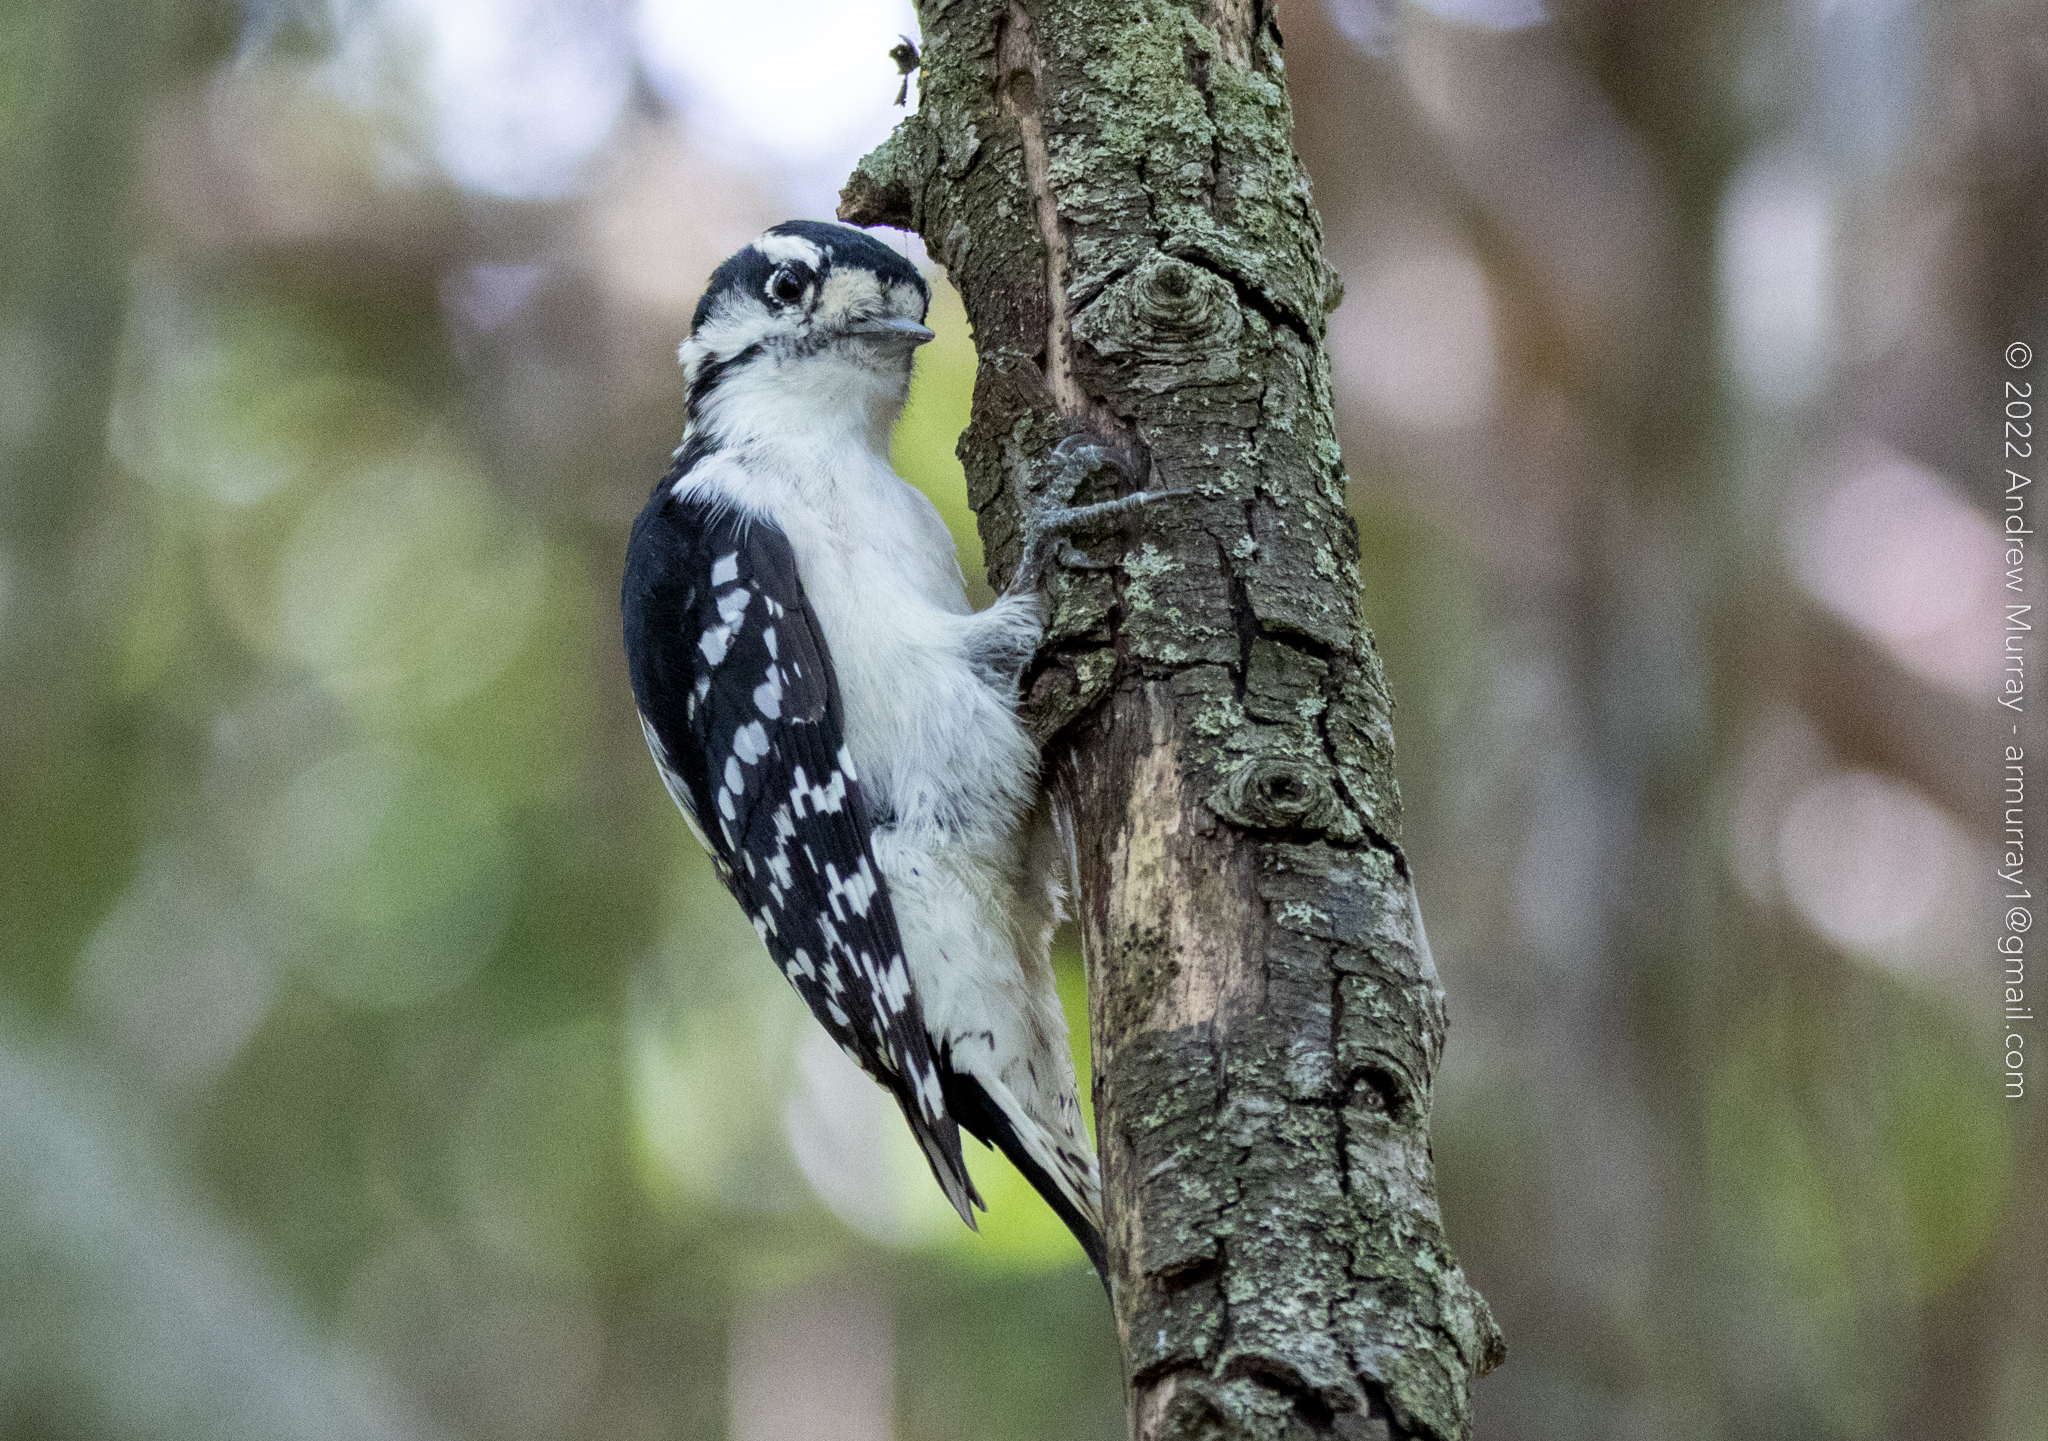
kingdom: Animalia
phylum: Chordata
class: Aves
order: Piciformes
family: Picidae
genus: Dryobates
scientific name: Dryobates pubescens
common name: Downy woodpecker
